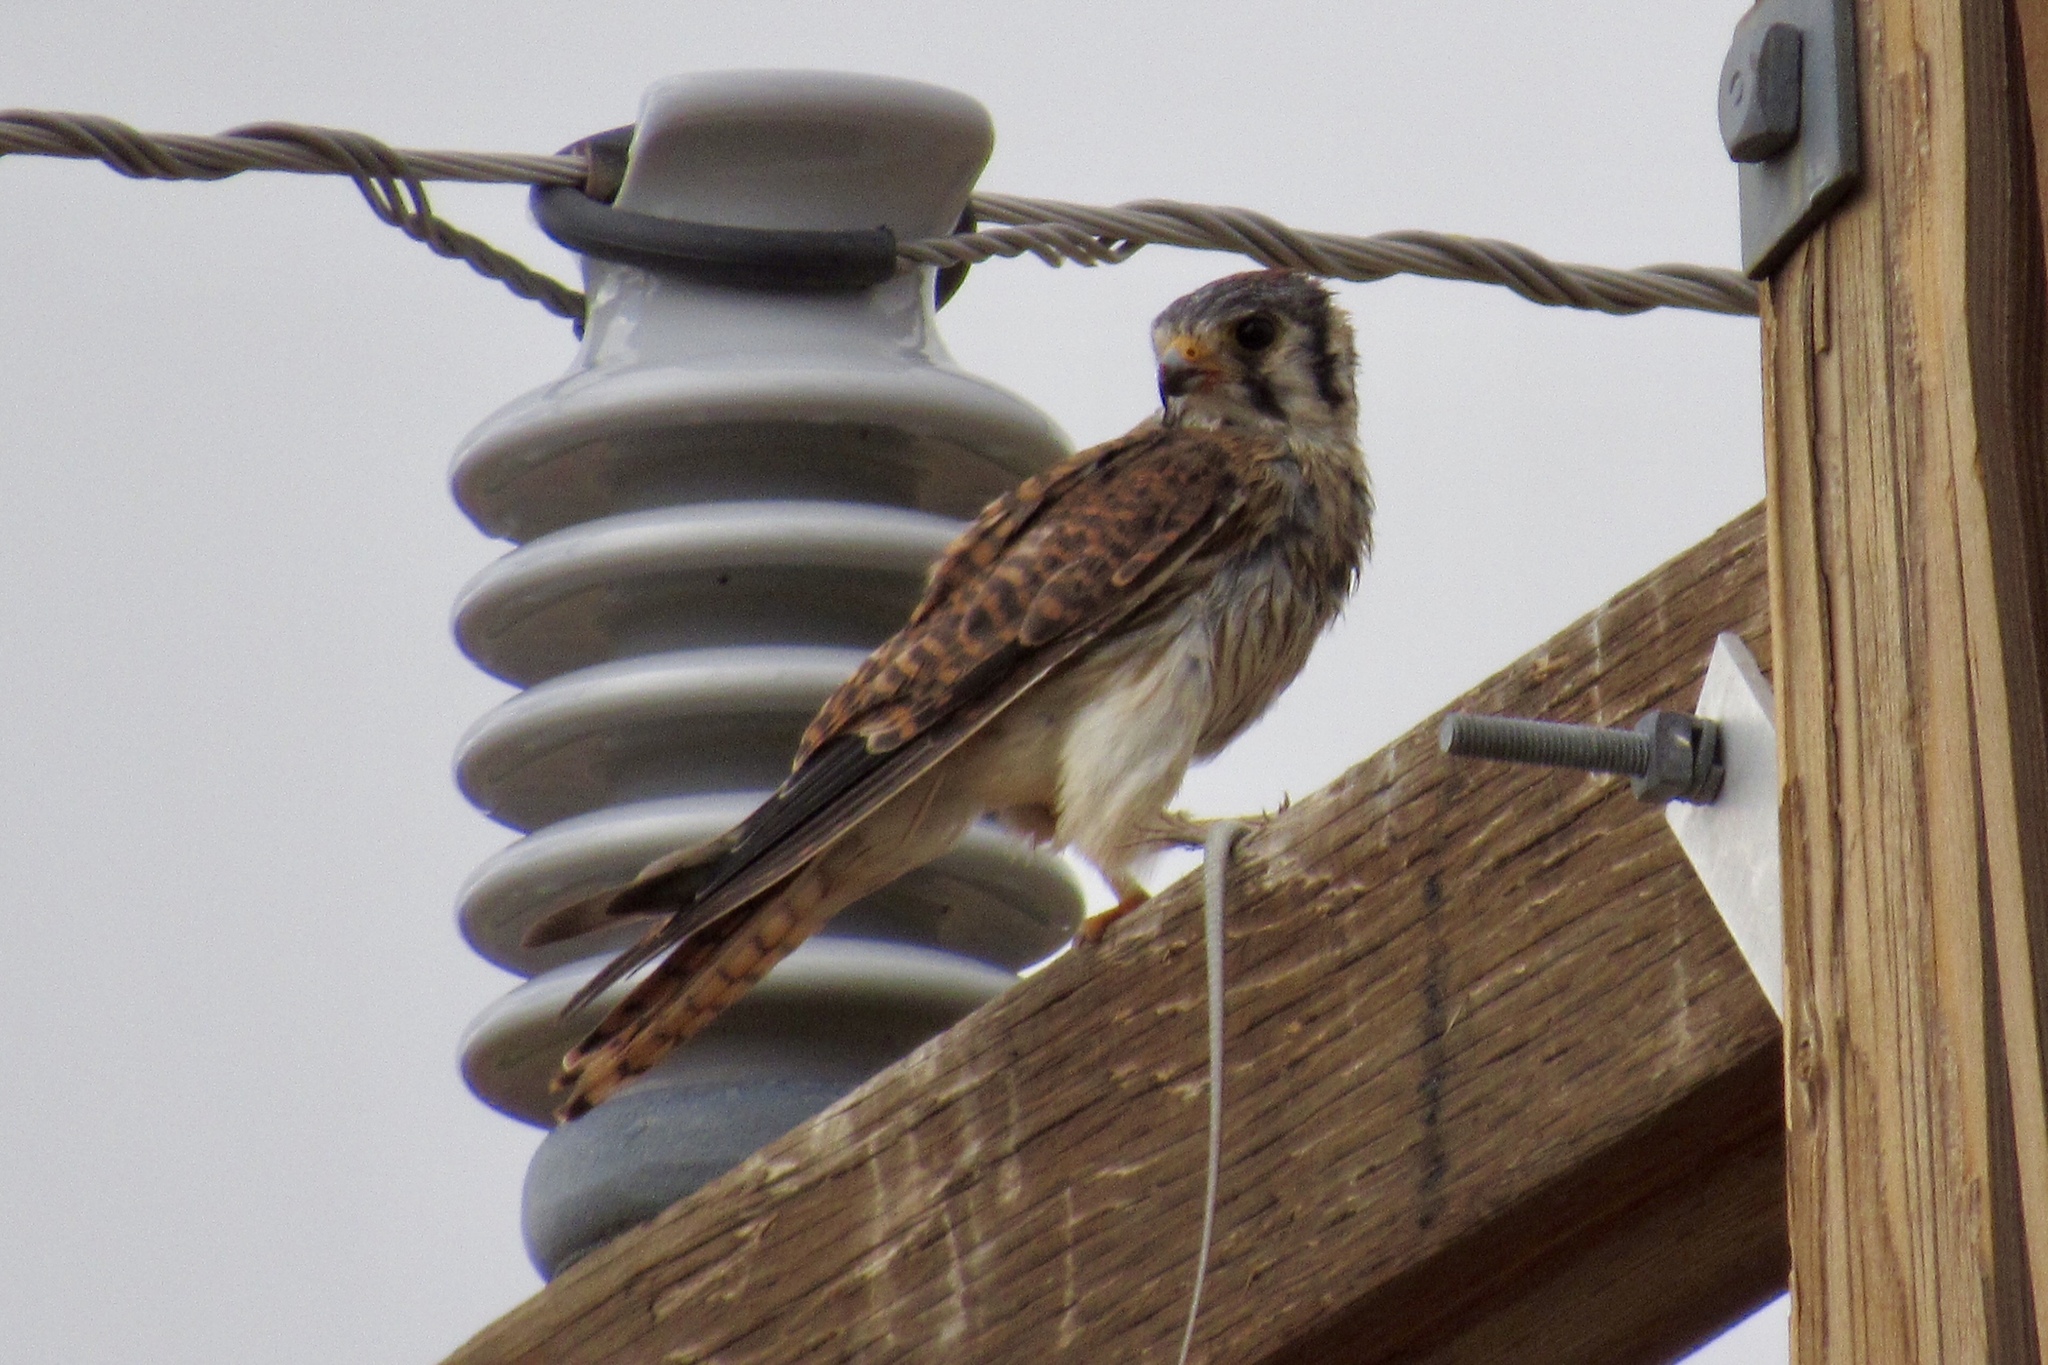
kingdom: Animalia
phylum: Chordata
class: Aves
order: Falconiformes
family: Falconidae
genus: Falco
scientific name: Falco sparverius
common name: American kestrel
